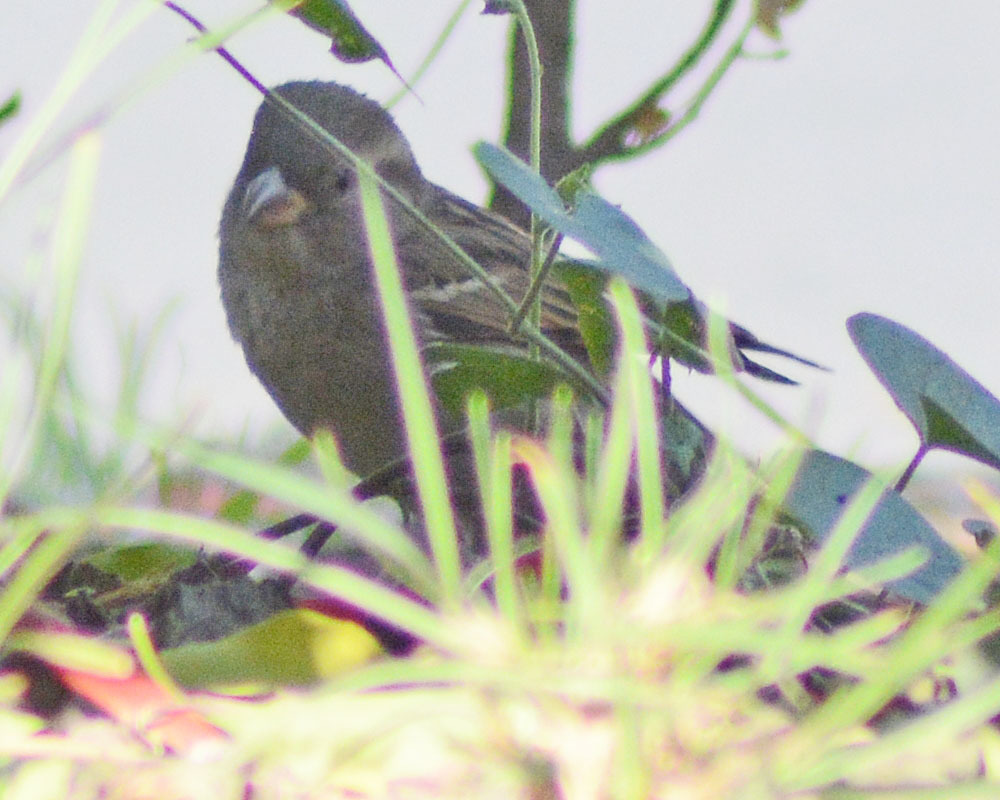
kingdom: Animalia
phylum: Chordata
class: Aves
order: Passeriformes
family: Passeridae
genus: Passer
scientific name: Passer domesticus
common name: House sparrow
